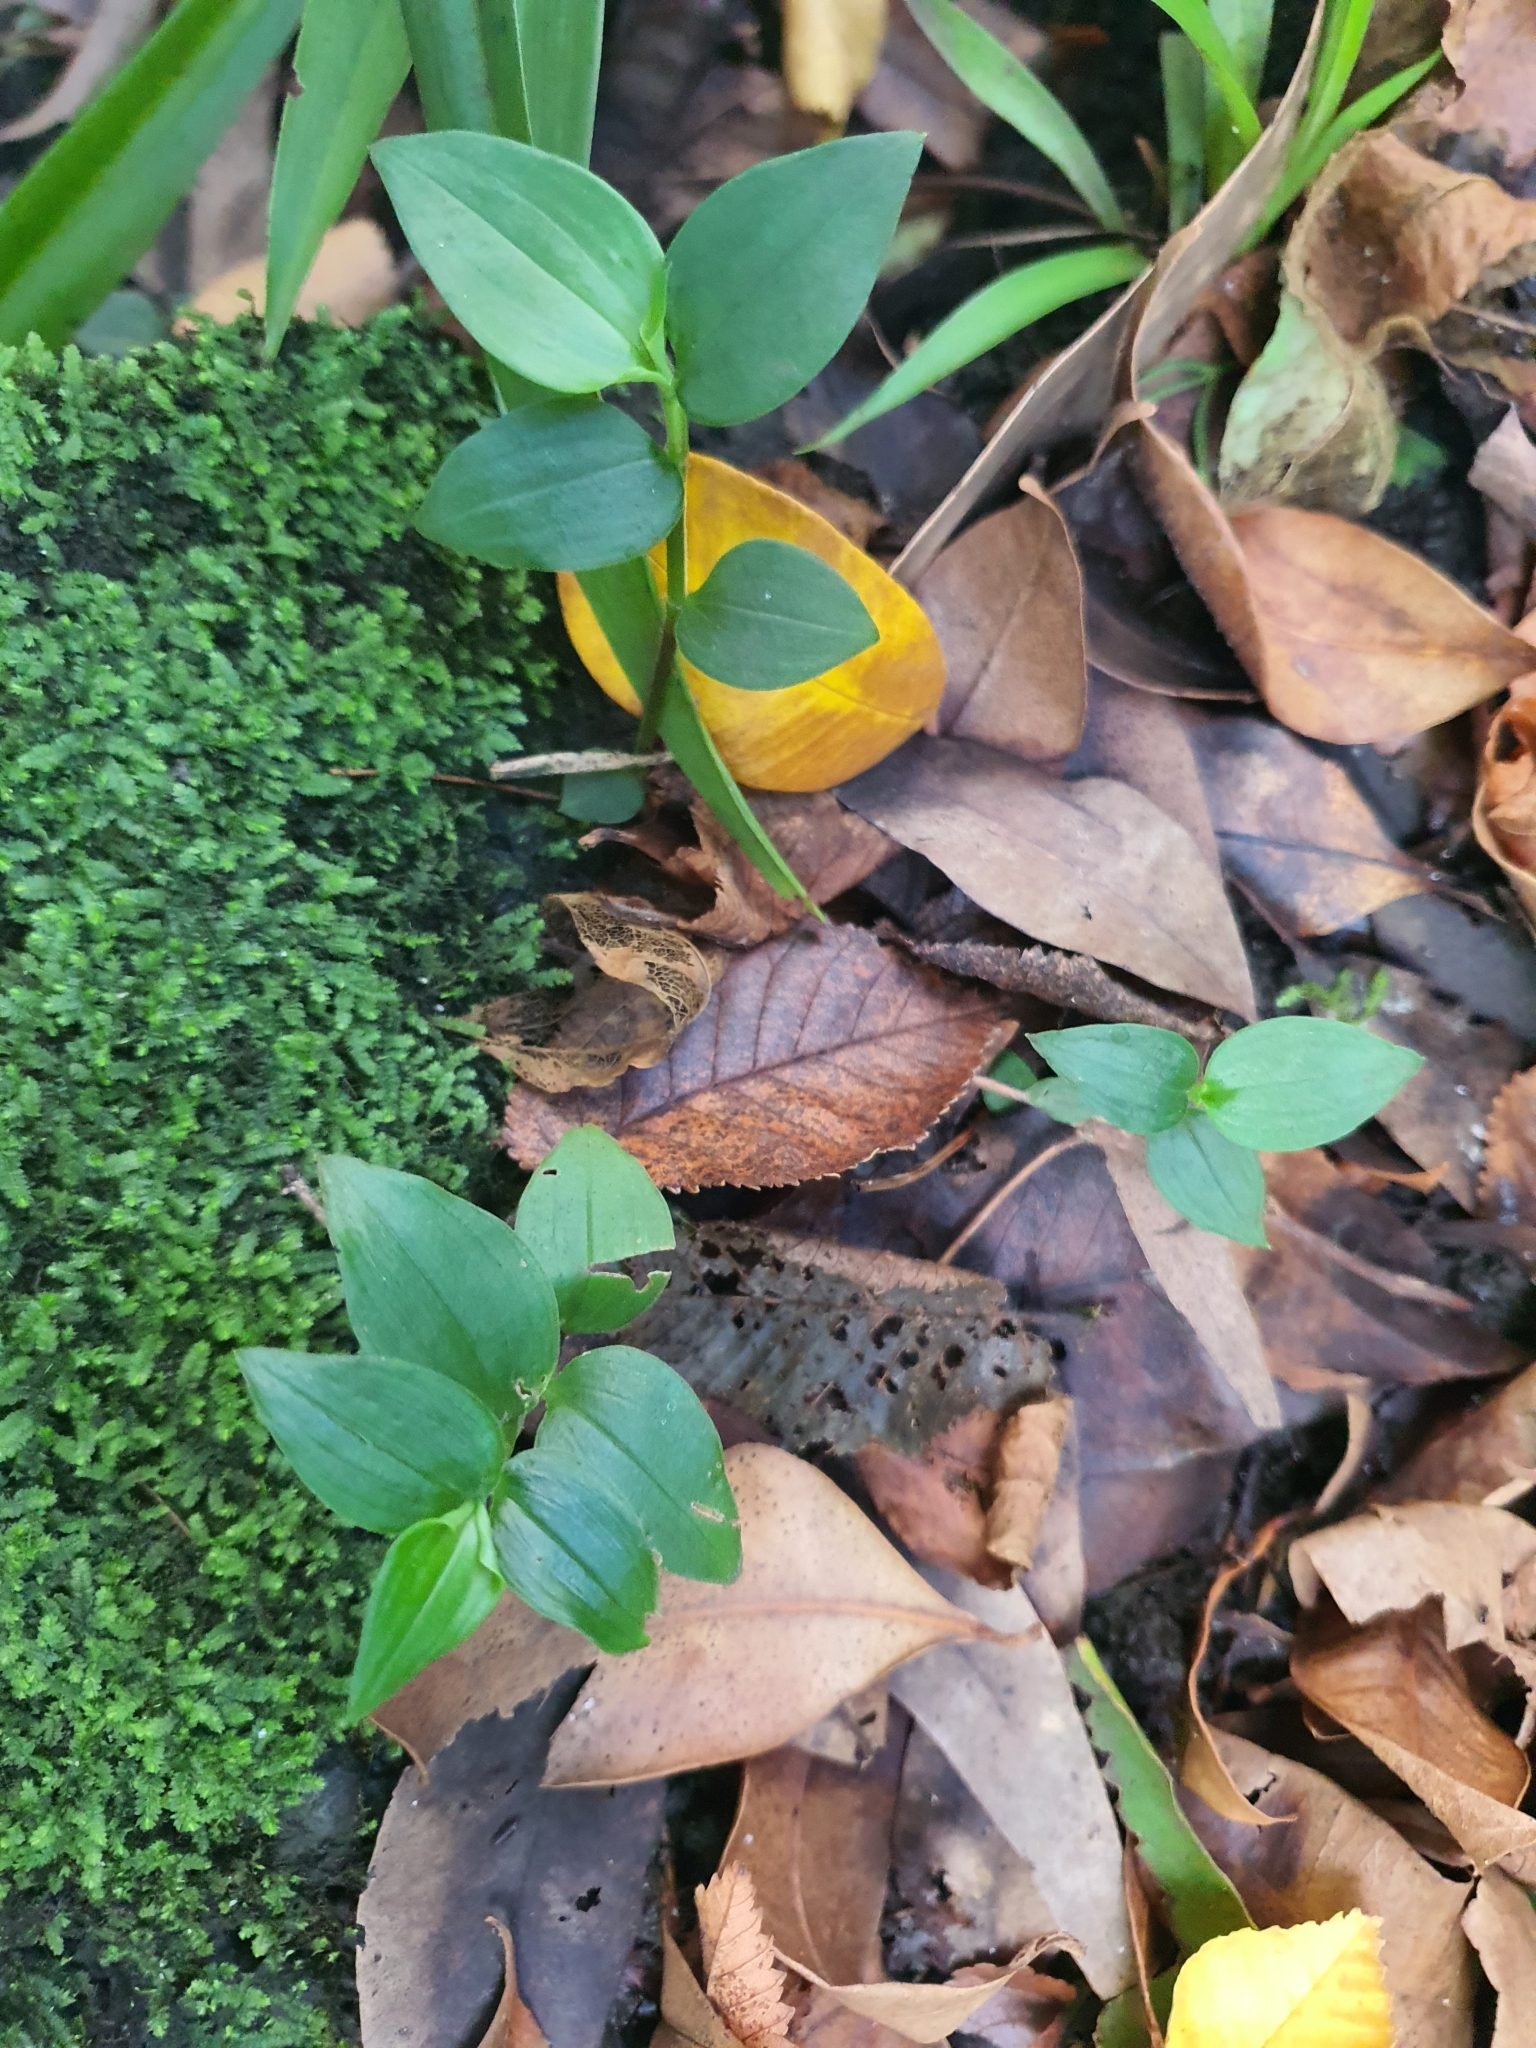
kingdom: Plantae
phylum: Tracheophyta
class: Liliopsida
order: Commelinales
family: Commelinaceae
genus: Tradescantia
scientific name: Tradescantia fluminensis
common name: Wandering-jew
